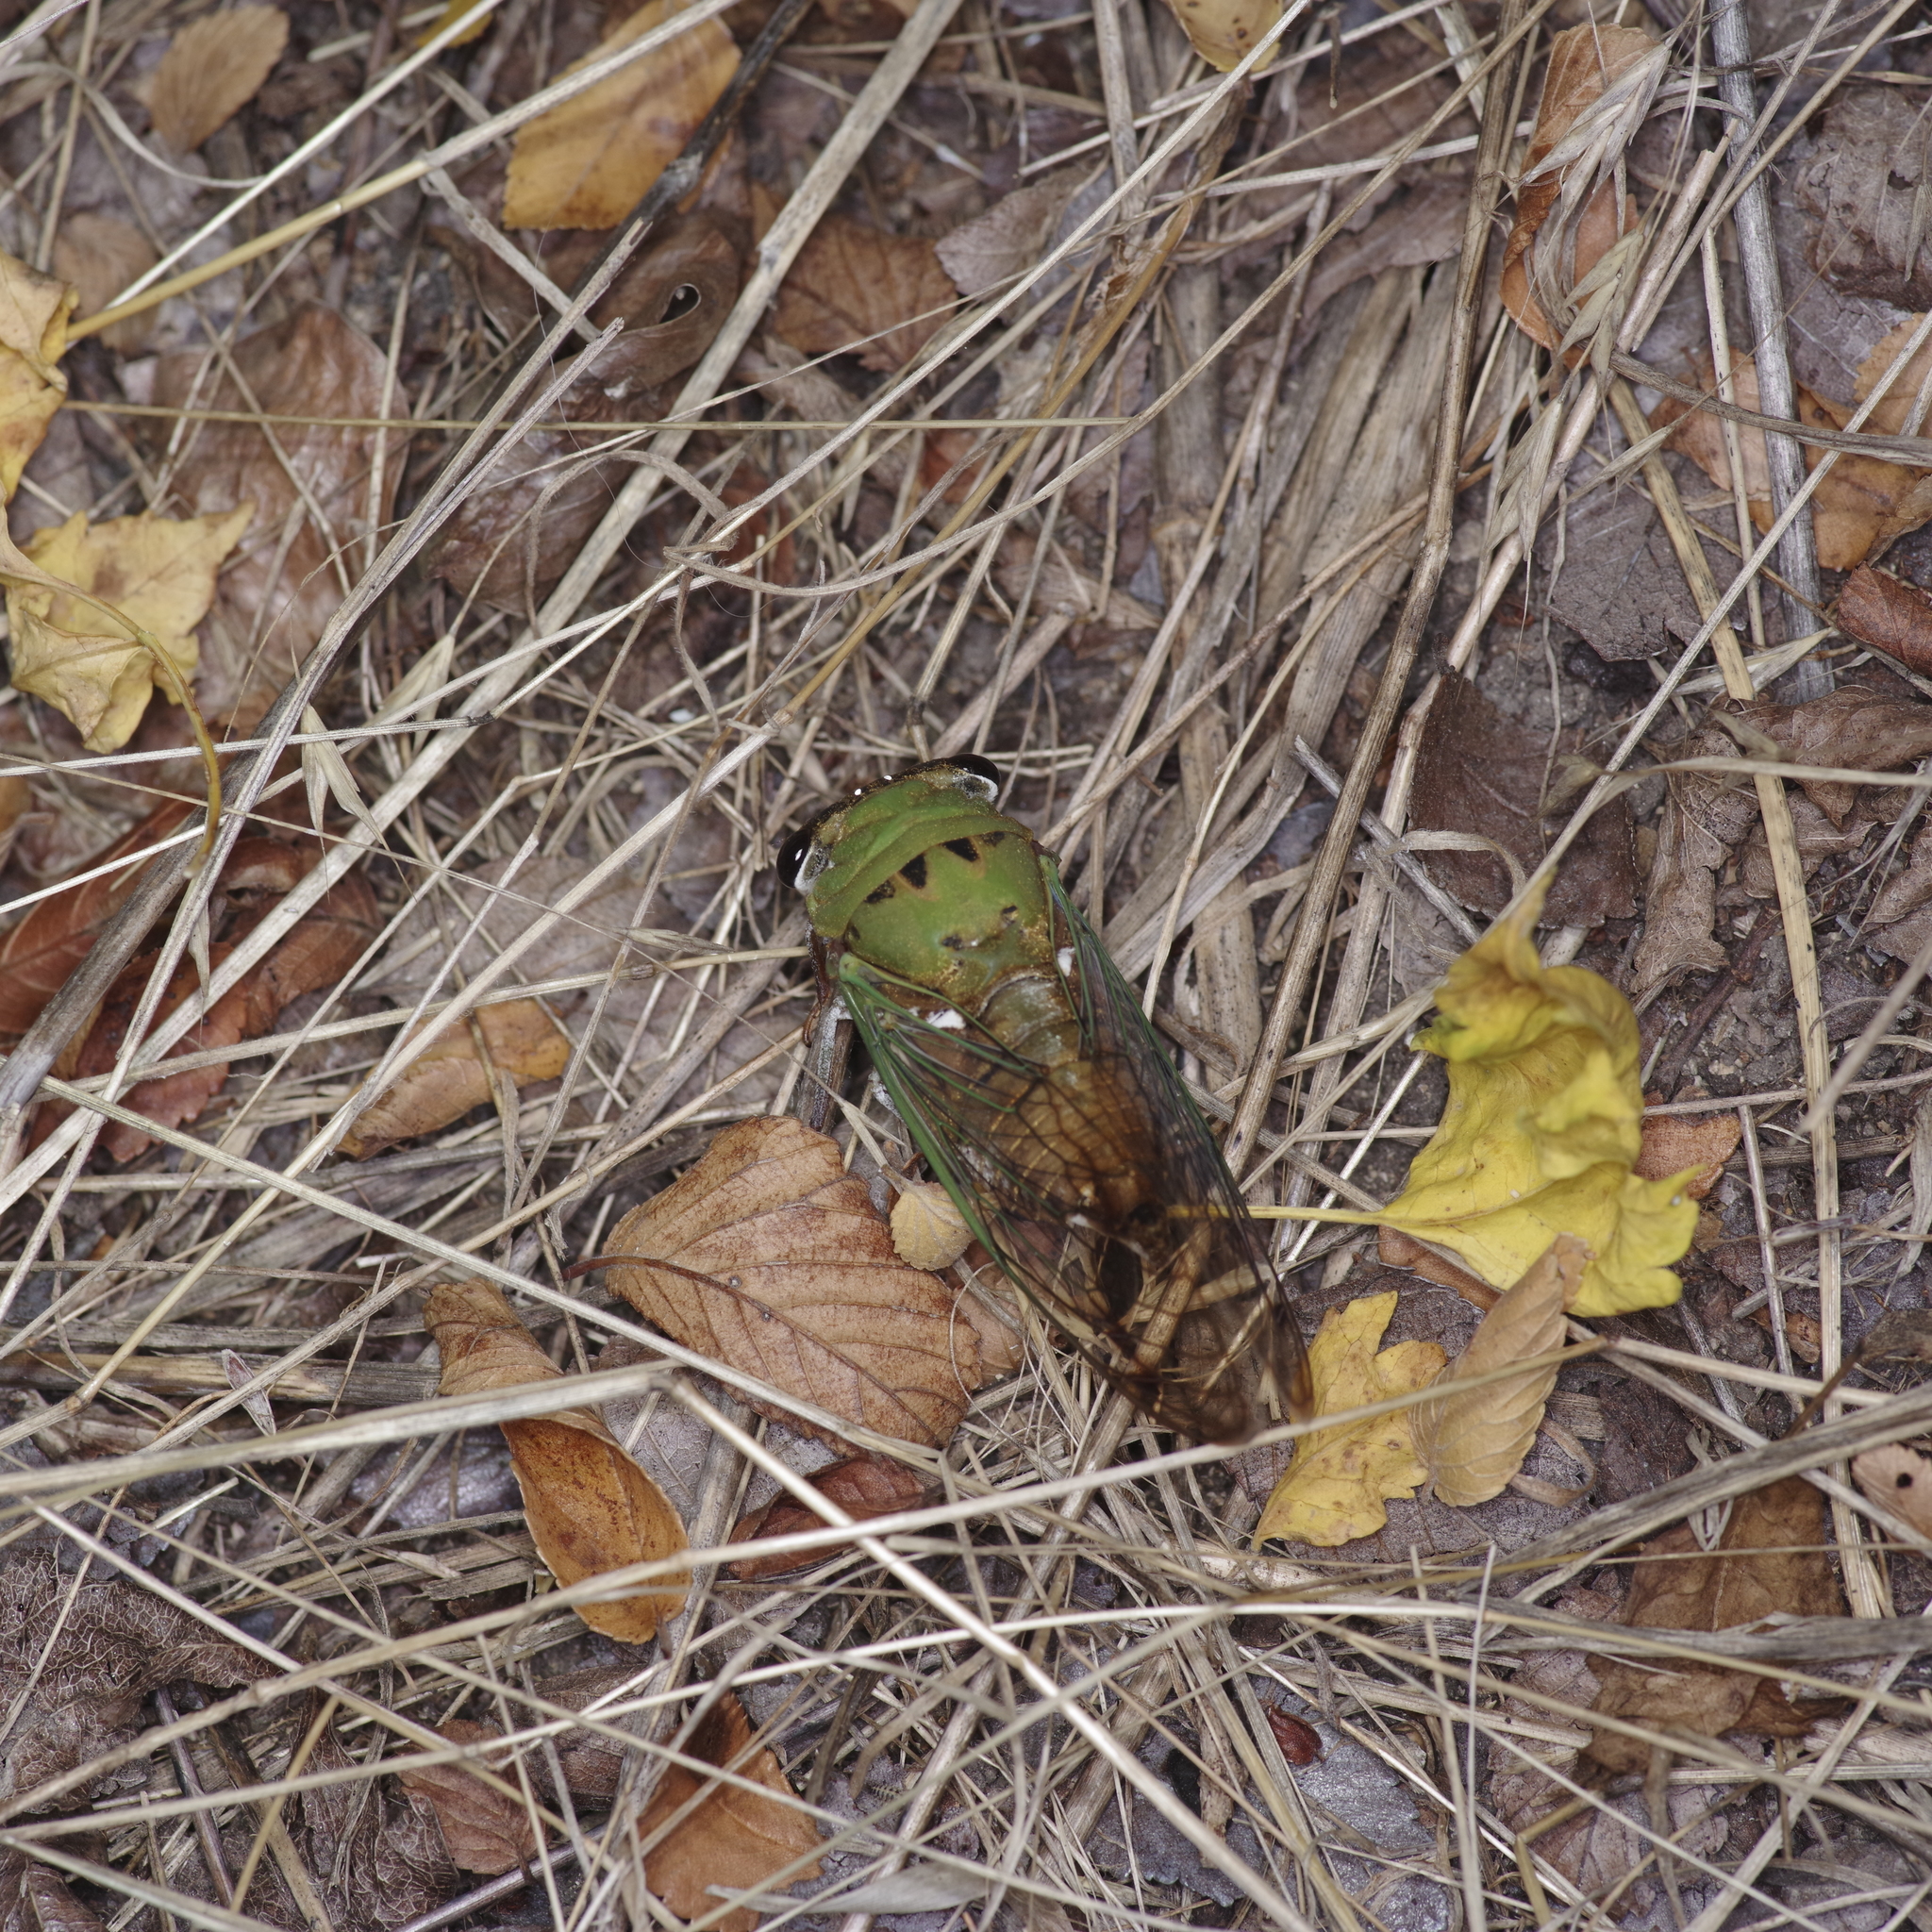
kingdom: Animalia
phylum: Arthropoda
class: Insecta
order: Hemiptera
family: Cicadidae
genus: Neotibicen
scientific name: Neotibicen superbus
